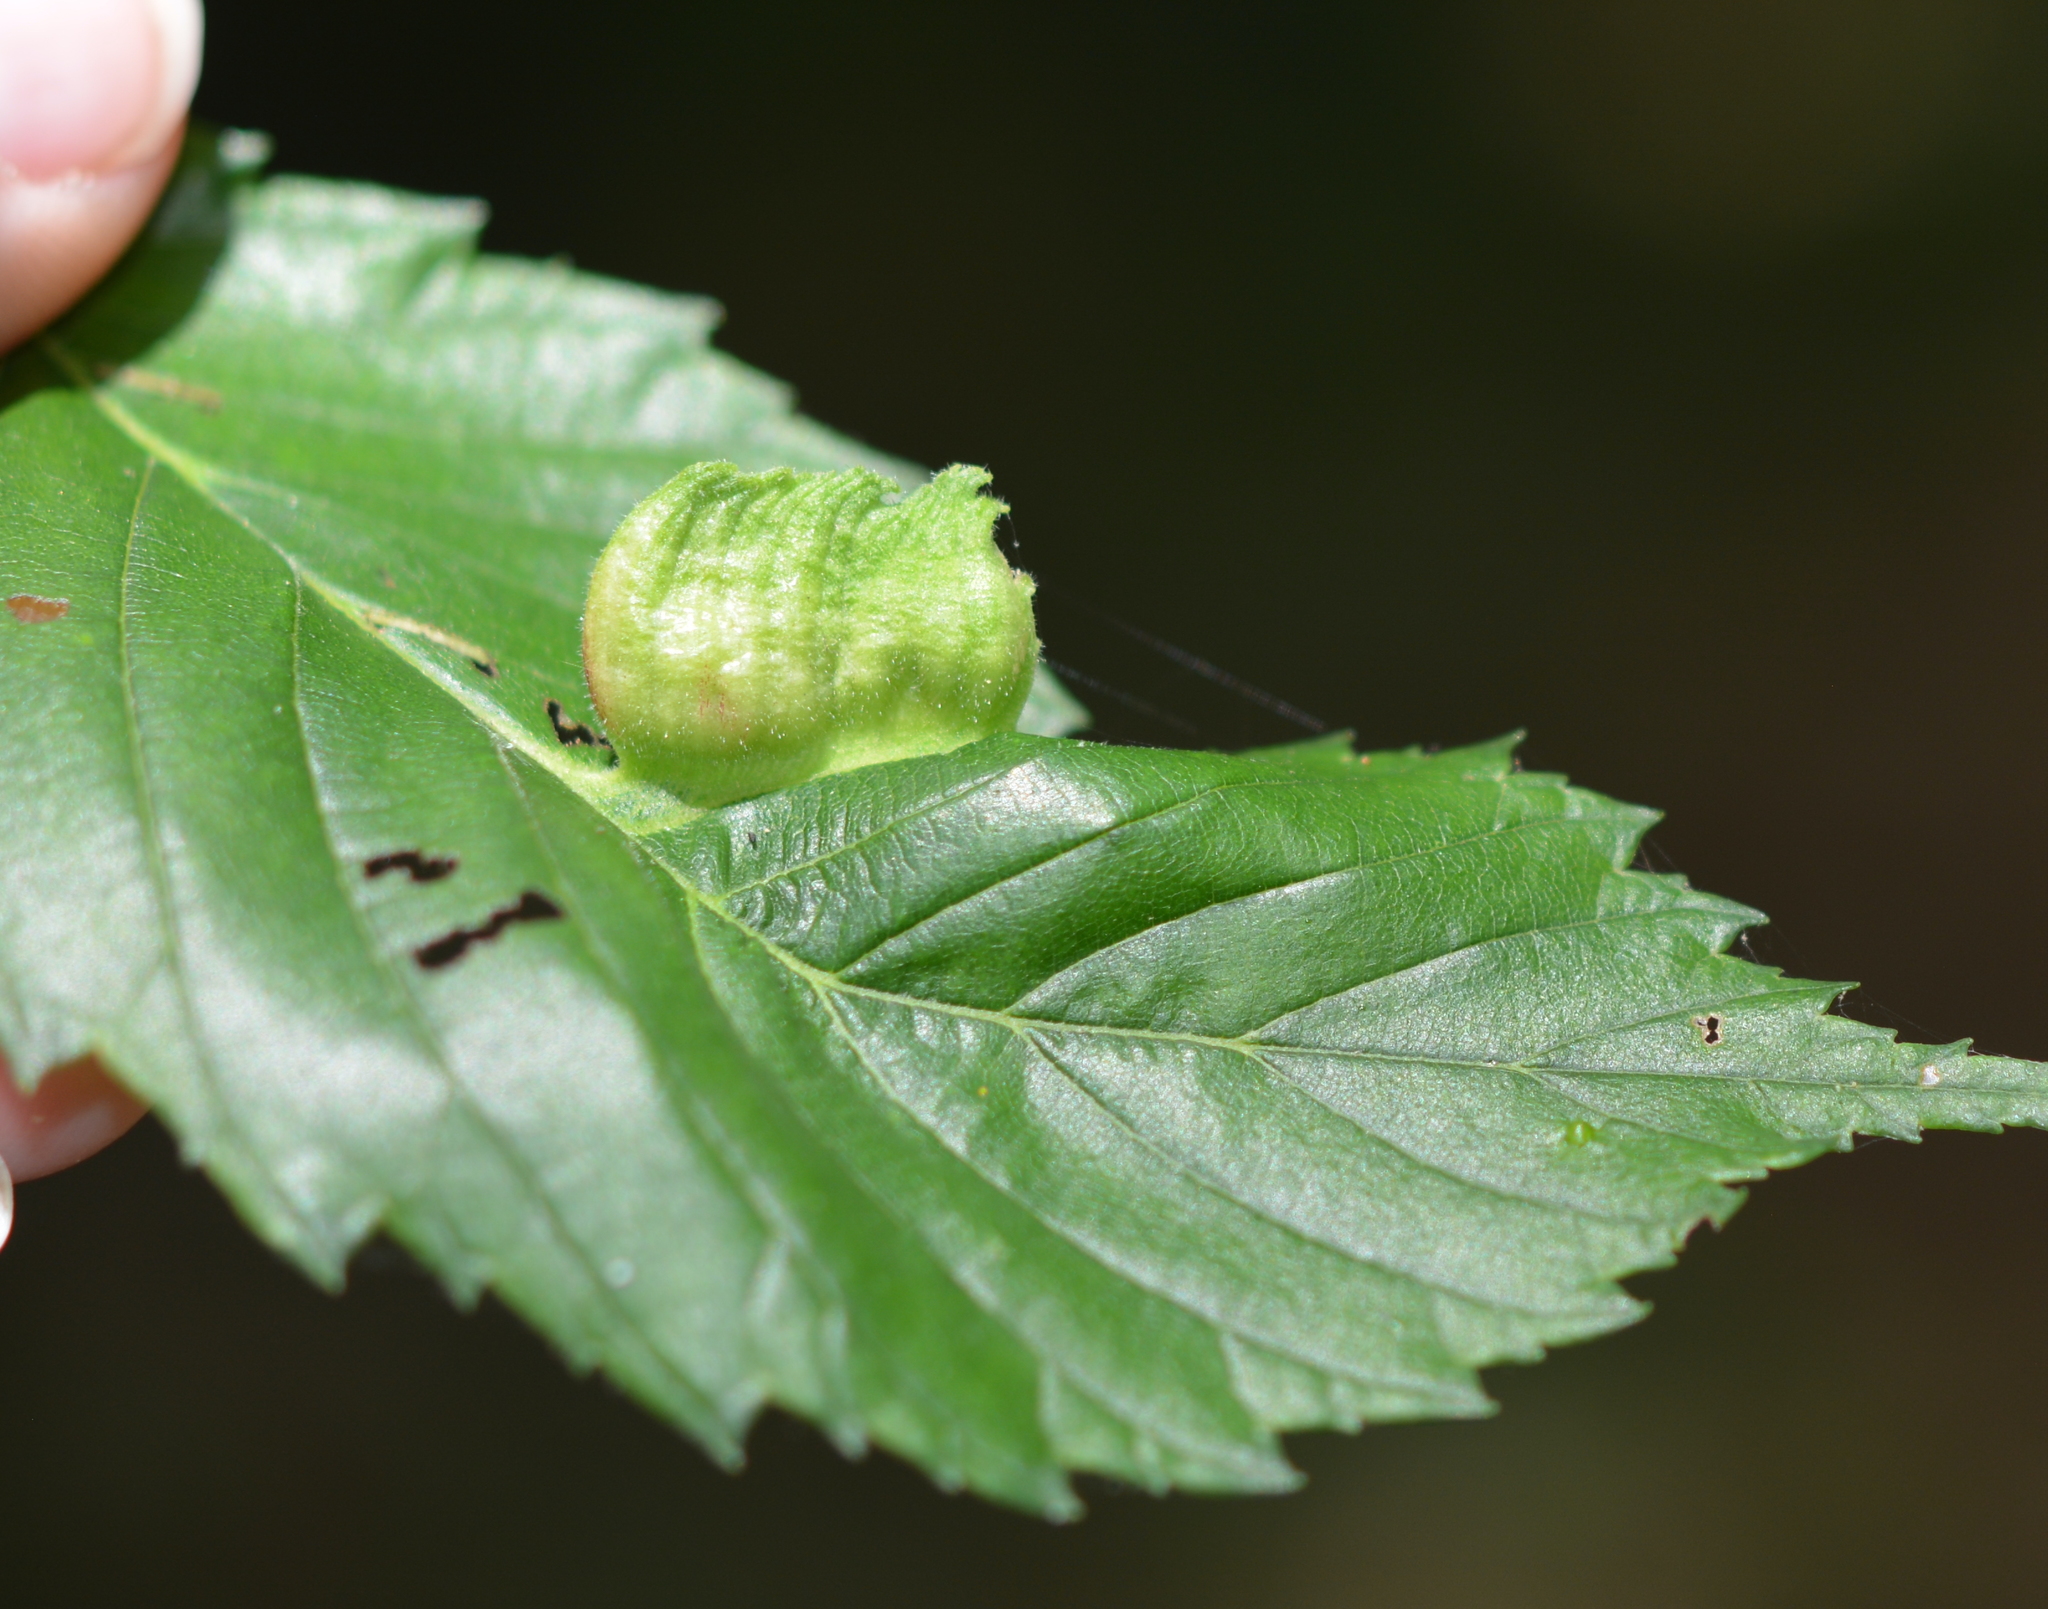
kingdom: Animalia
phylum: Arthropoda
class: Insecta
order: Hemiptera
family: Aphididae
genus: Colopha
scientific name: Colopha ulmicola
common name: Elm cockscombgall aphid
